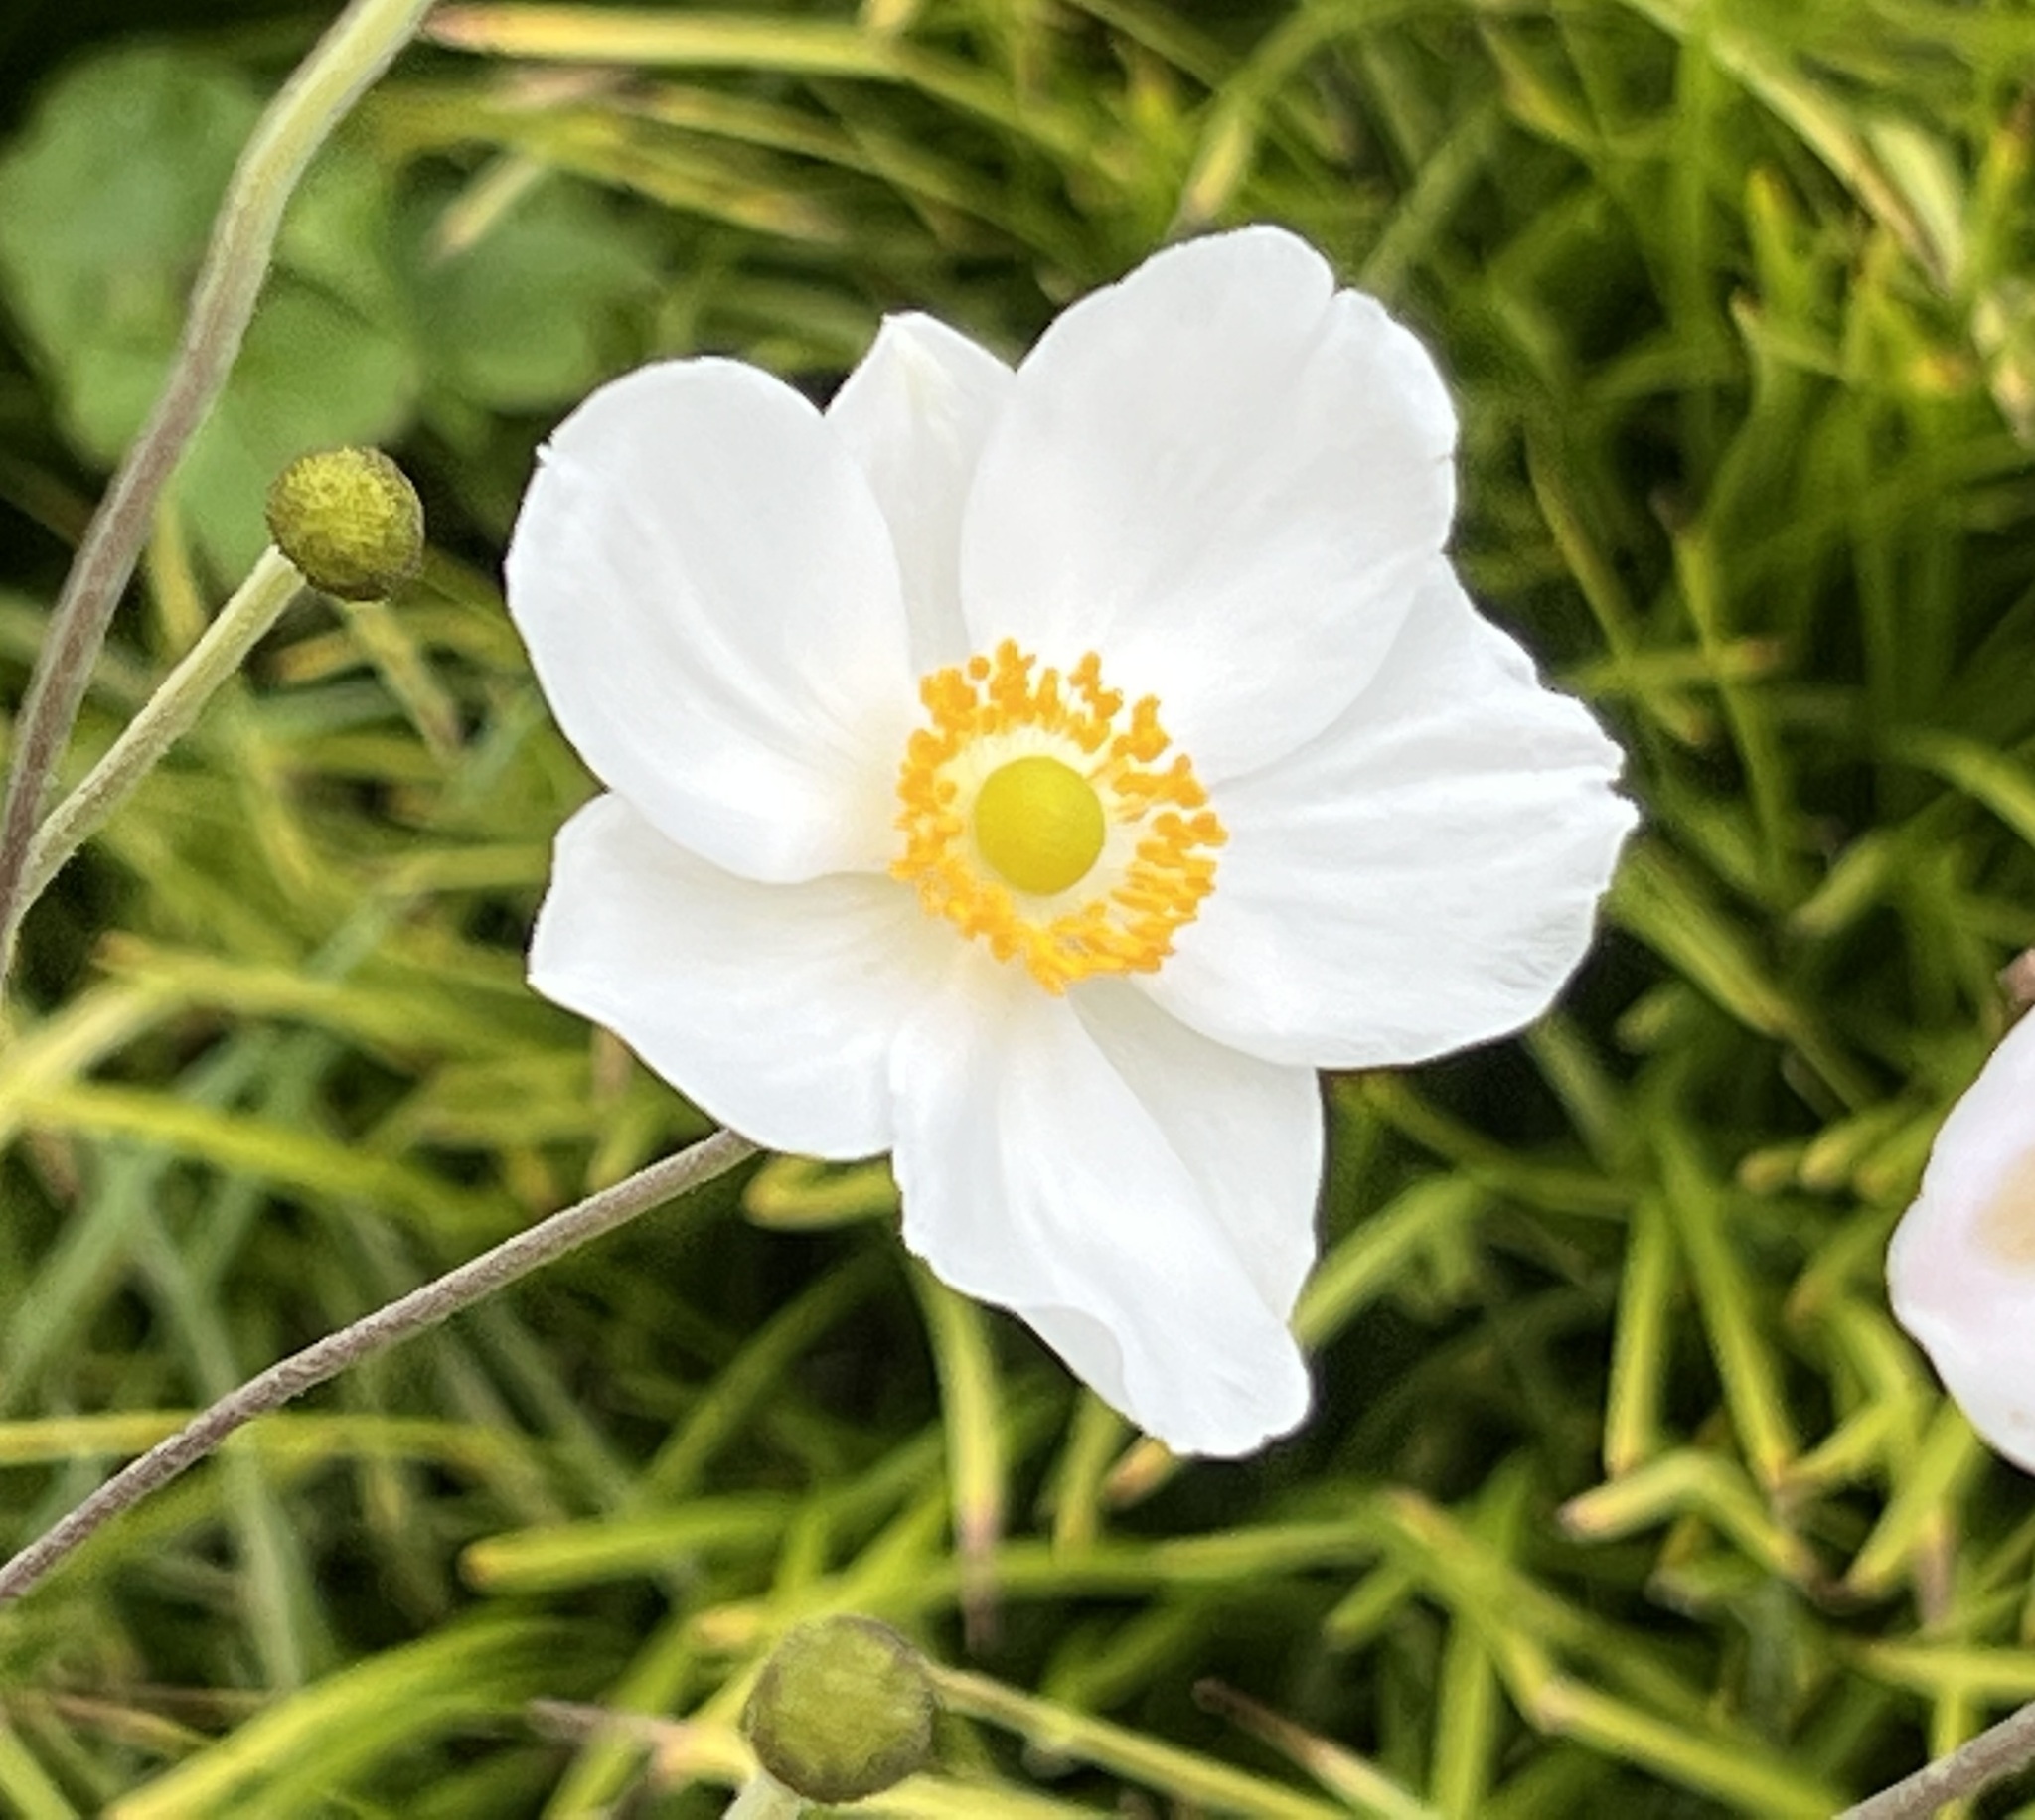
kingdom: Plantae
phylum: Tracheophyta
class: Magnoliopsida
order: Ranunculales
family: Ranunculaceae
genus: Eriocapitella
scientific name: Eriocapitella japonica
